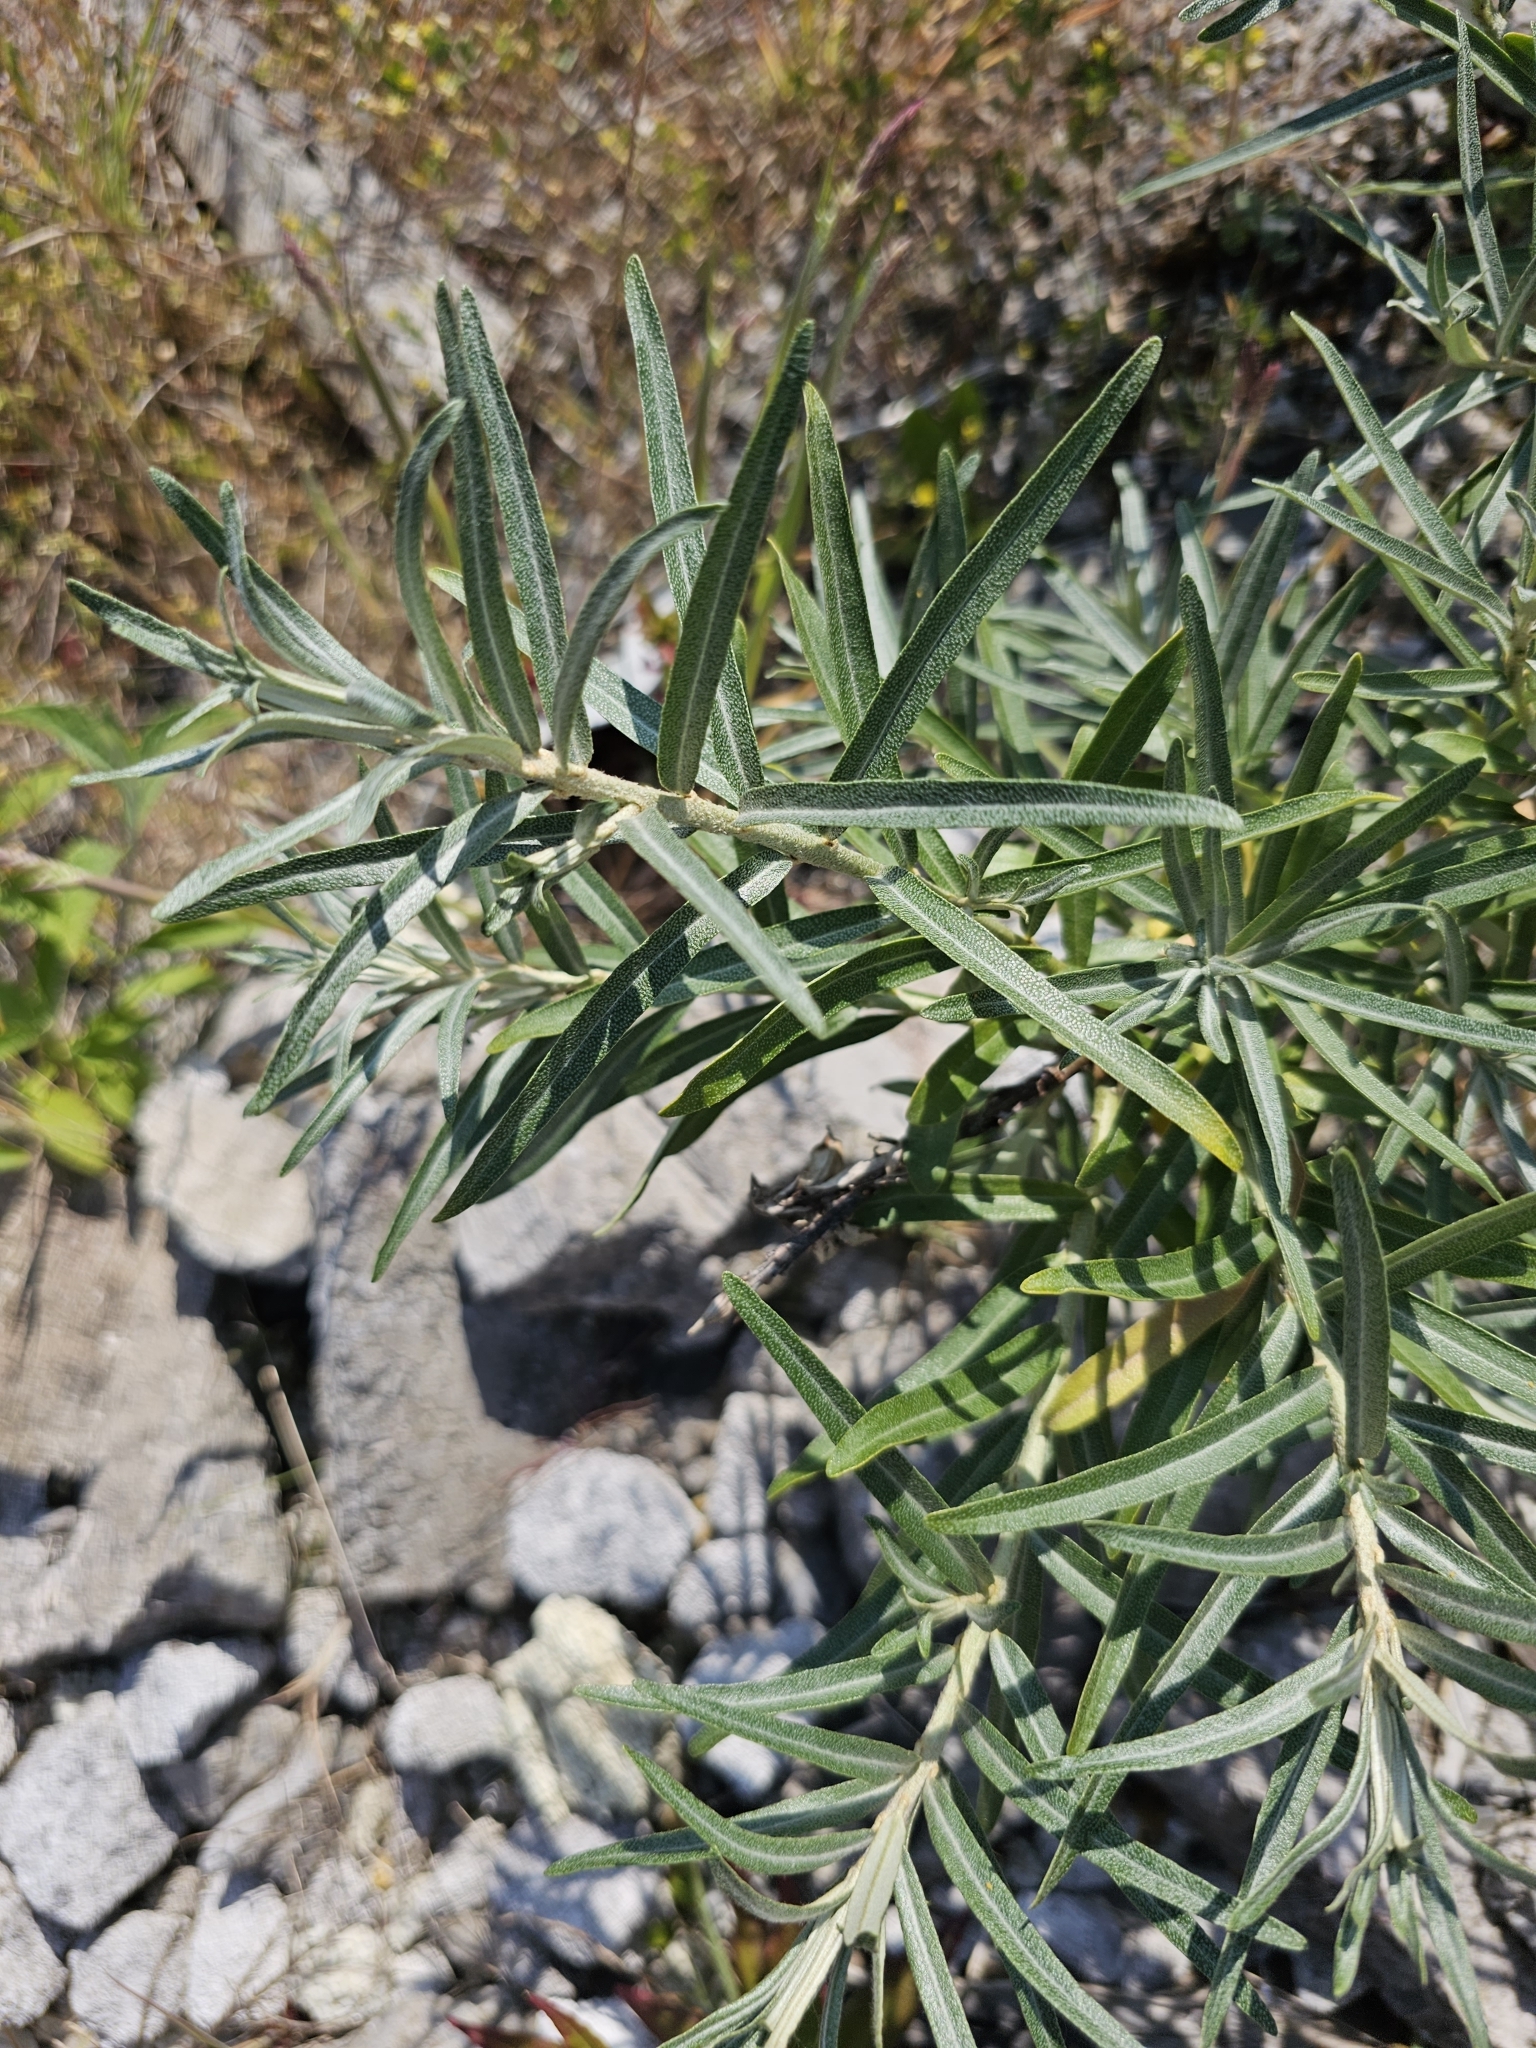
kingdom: Plantae
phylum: Tracheophyta
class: Magnoliopsida
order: Rosales
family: Elaeagnaceae
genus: Hippophae
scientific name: Hippophae rhamnoides
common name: Sea-buckthorn
